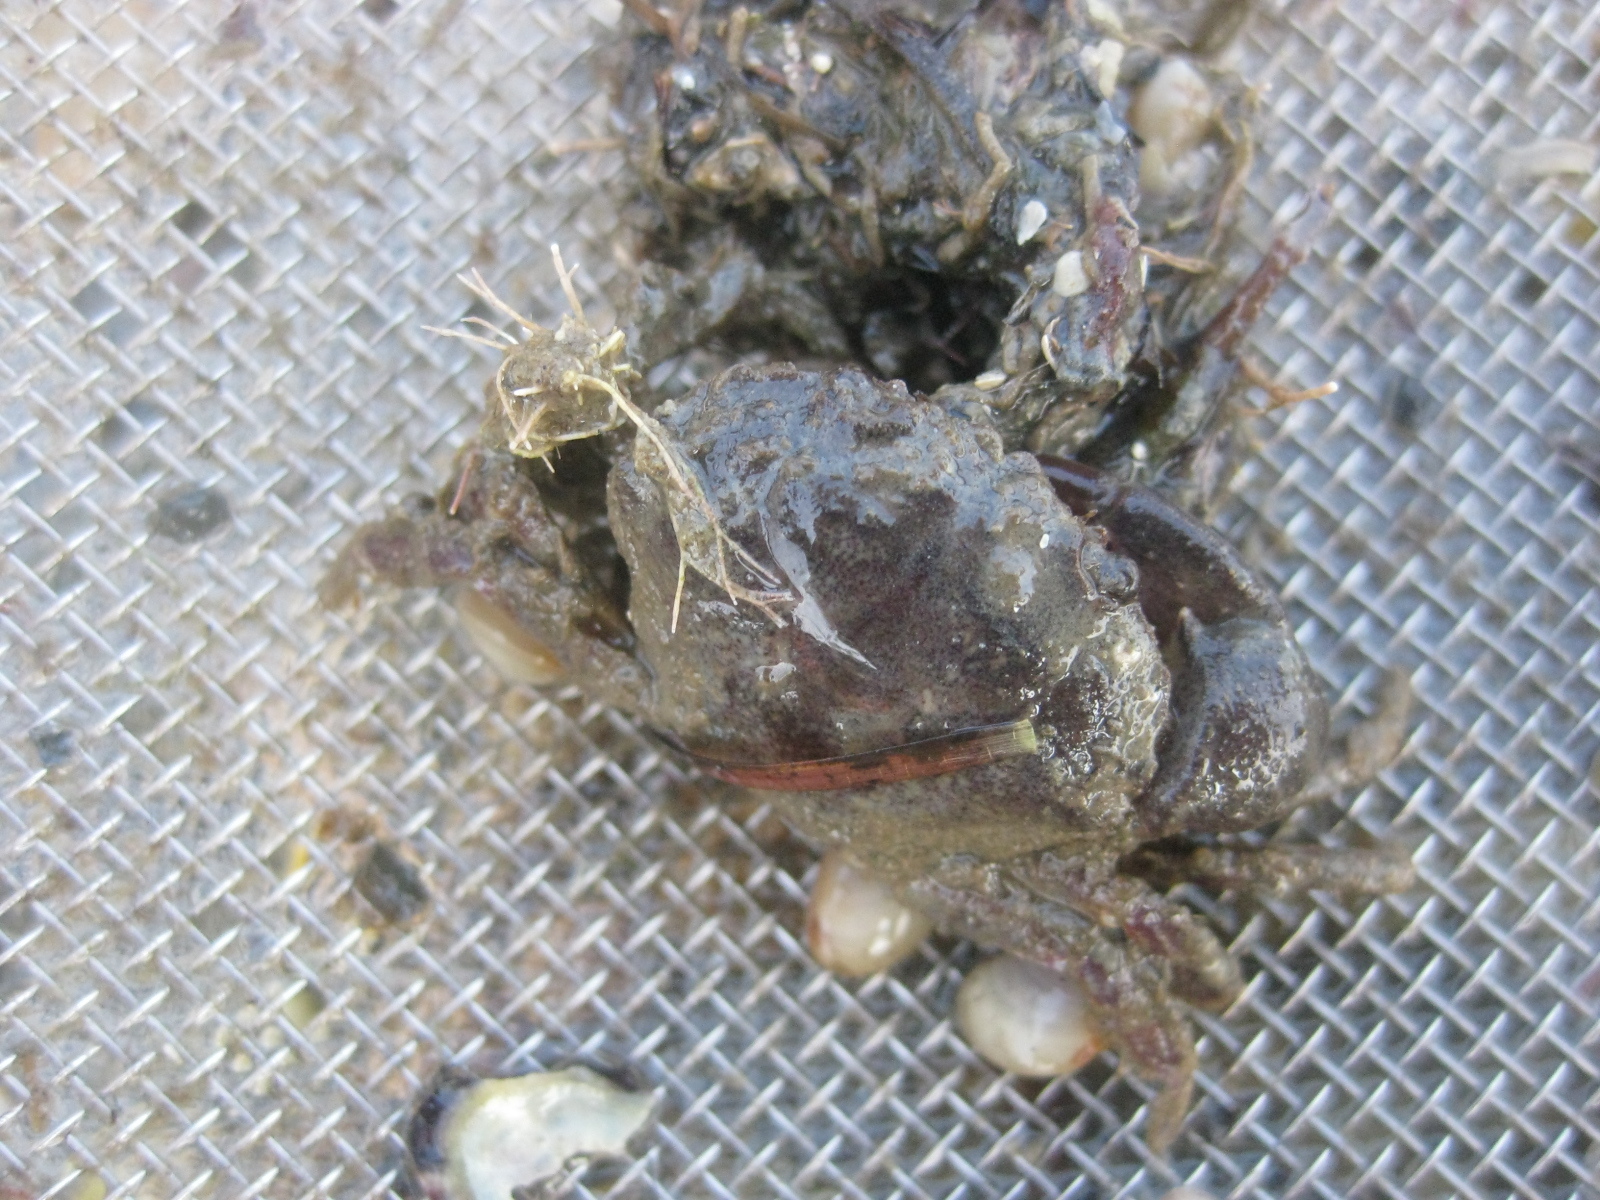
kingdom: Animalia
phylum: Arthropoda
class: Malacostraca
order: Decapoda
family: Pilumnidae
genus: Pilumnopeus
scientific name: Pilumnopeus serratifrons
